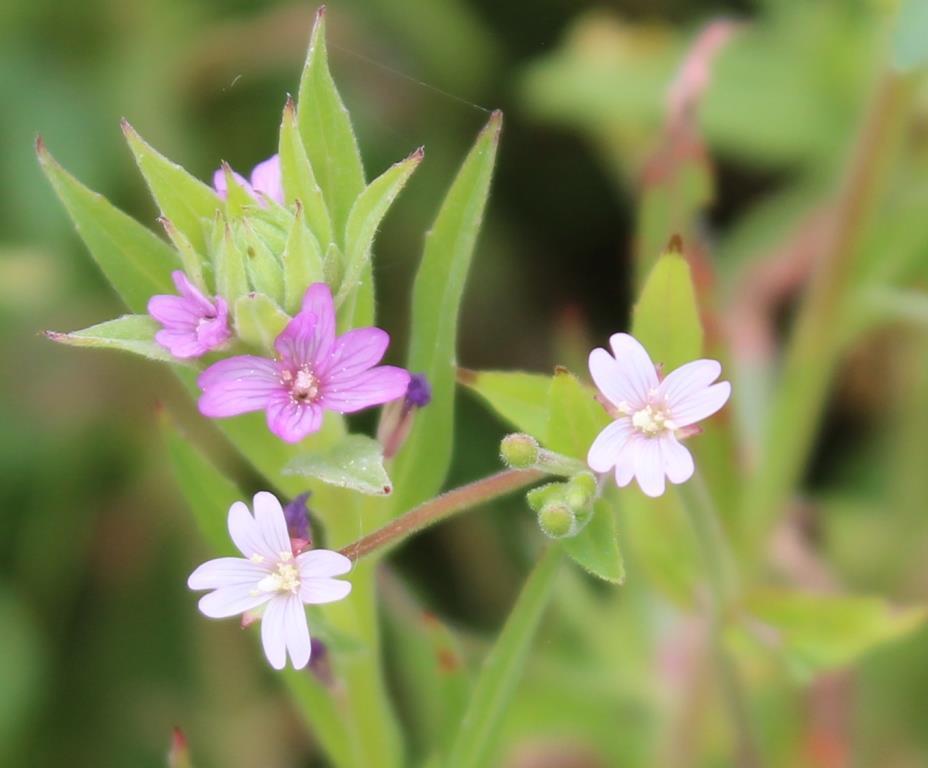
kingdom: Plantae
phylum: Tracheophyta
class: Magnoliopsida
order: Myrtales
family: Onagraceae
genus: Epilobium
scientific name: Epilobium densiflorum
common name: Dense spike-primrose
